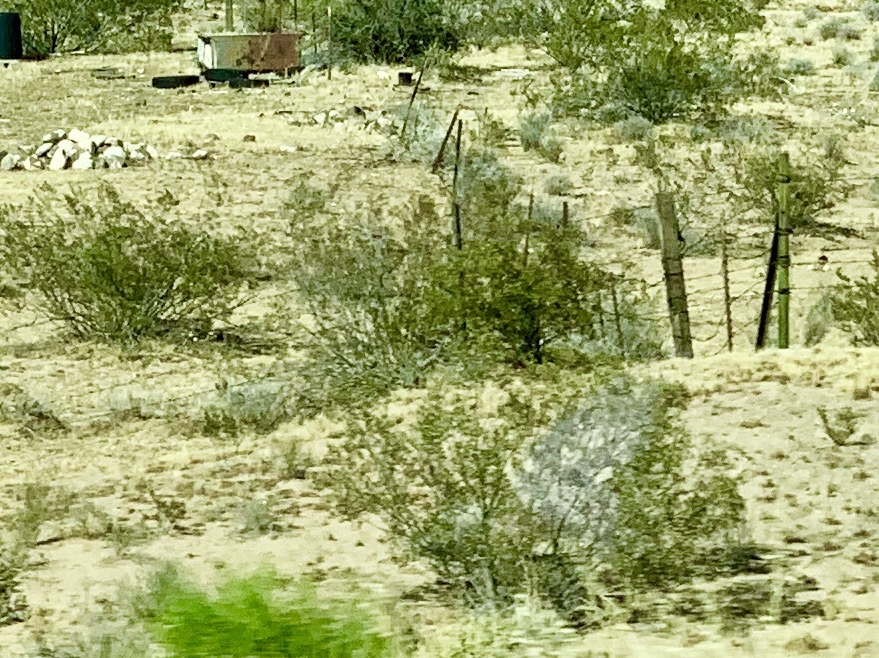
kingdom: Plantae
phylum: Tracheophyta
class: Magnoliopsida
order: Zygophyllales
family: Zygophyllaceae
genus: Larrea
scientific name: Larrea tridentata
